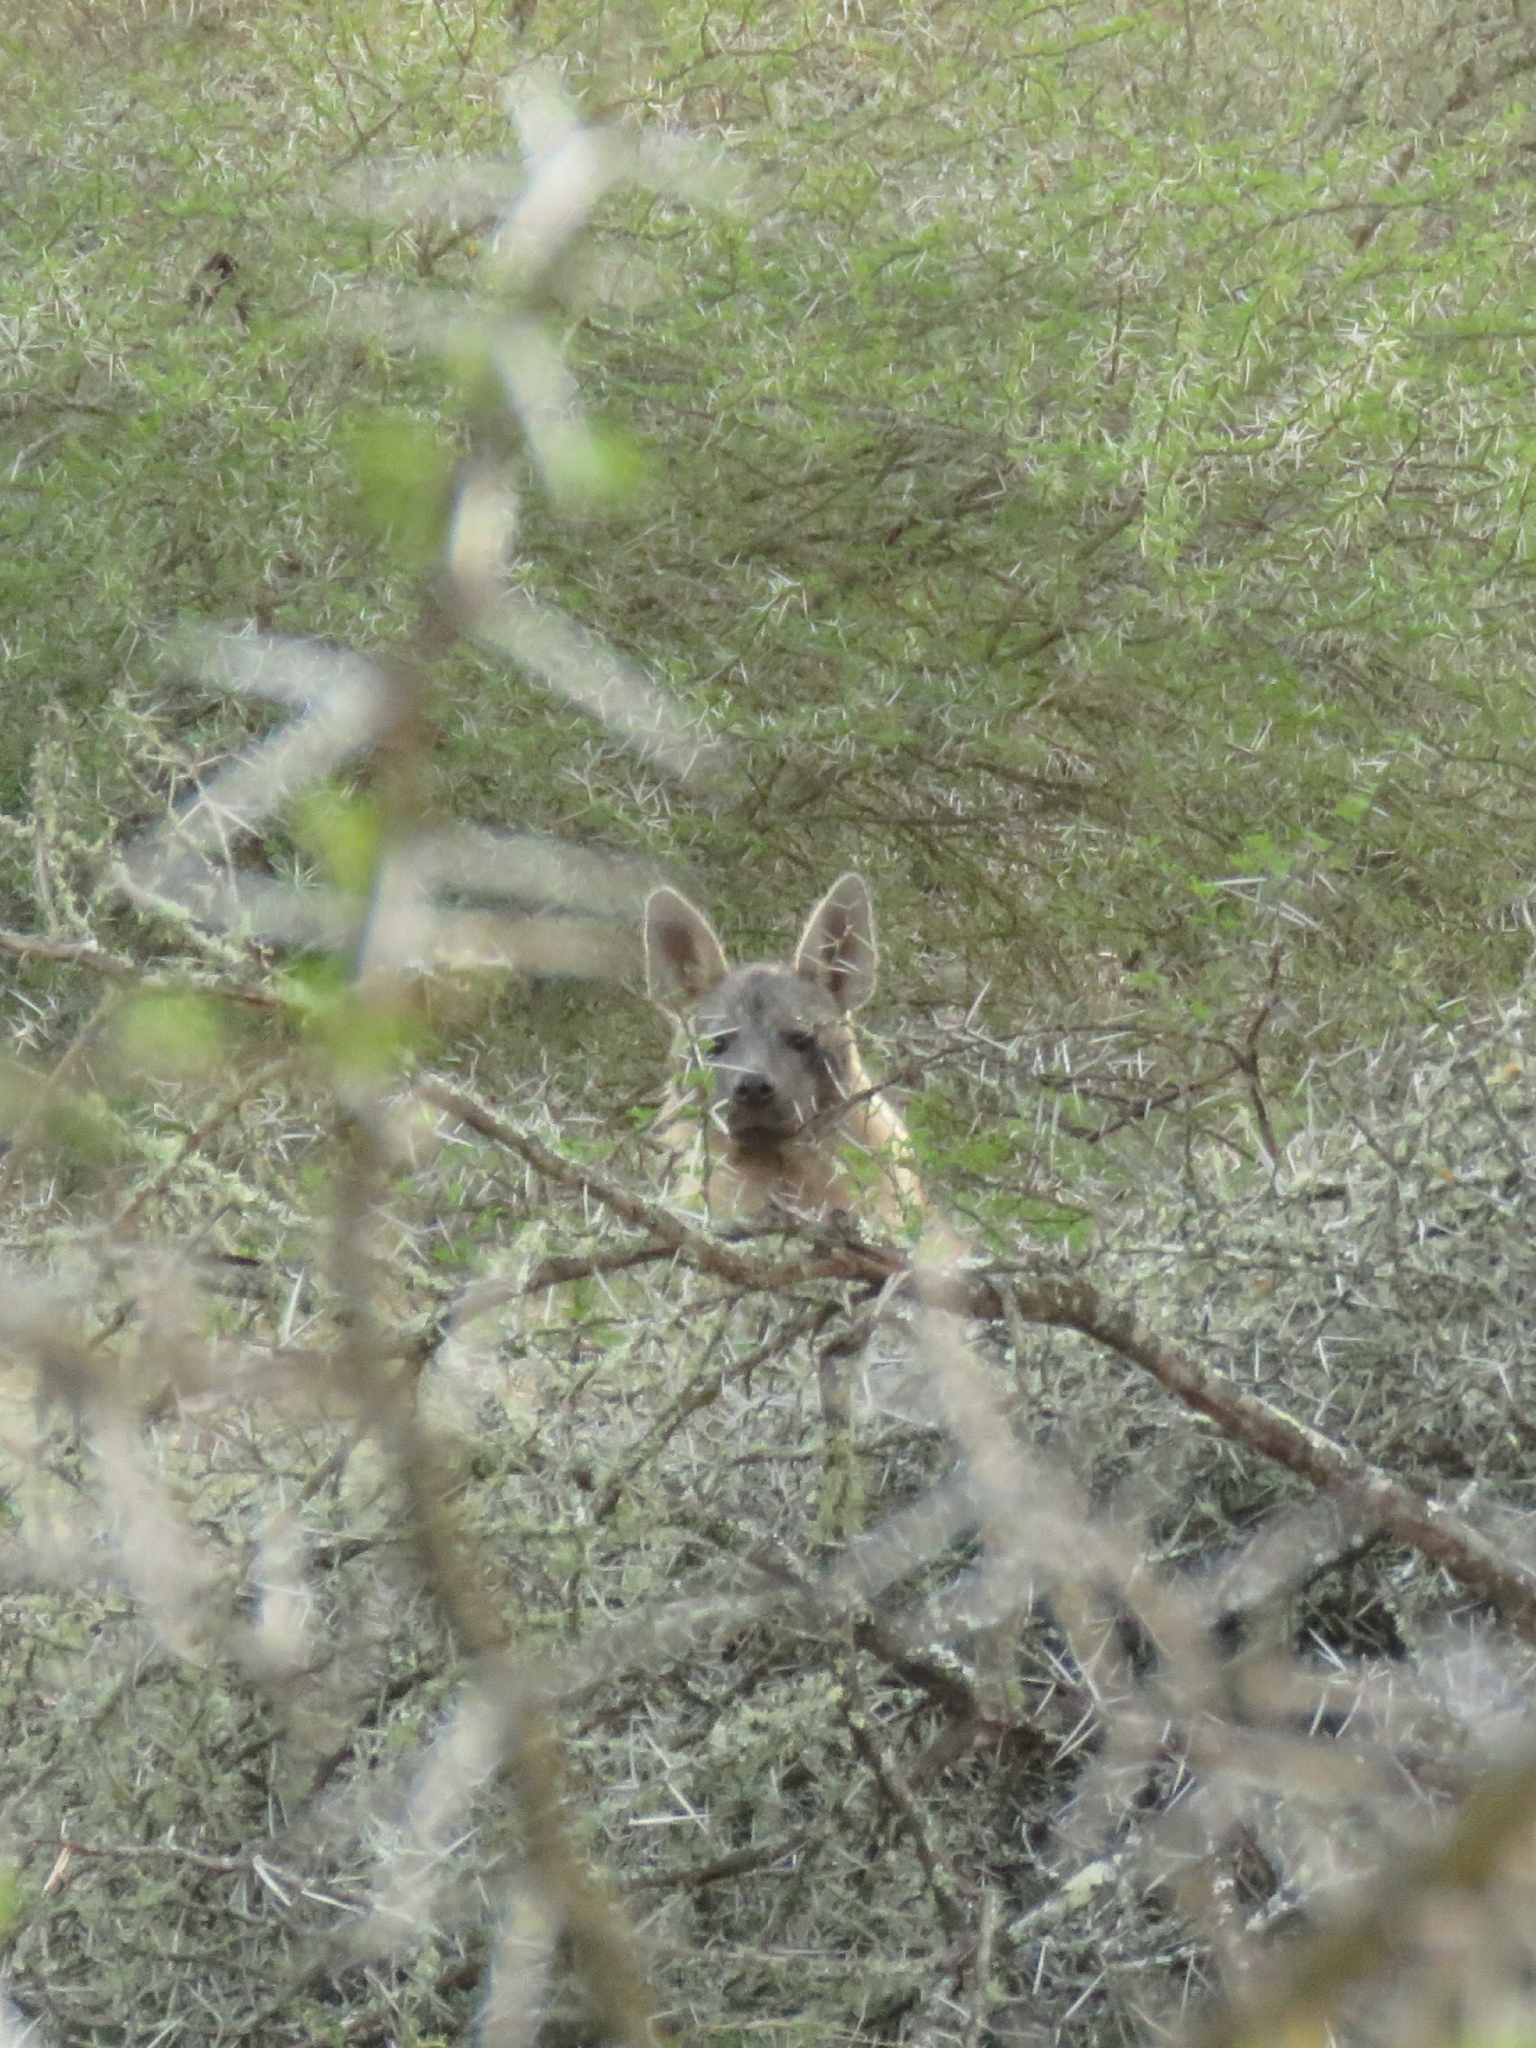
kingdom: Animalia
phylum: Chordata
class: Mammalia
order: Carnivora
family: Hyaenidae
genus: Hyaena
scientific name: Hyaena brunnea
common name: Brown hyena
